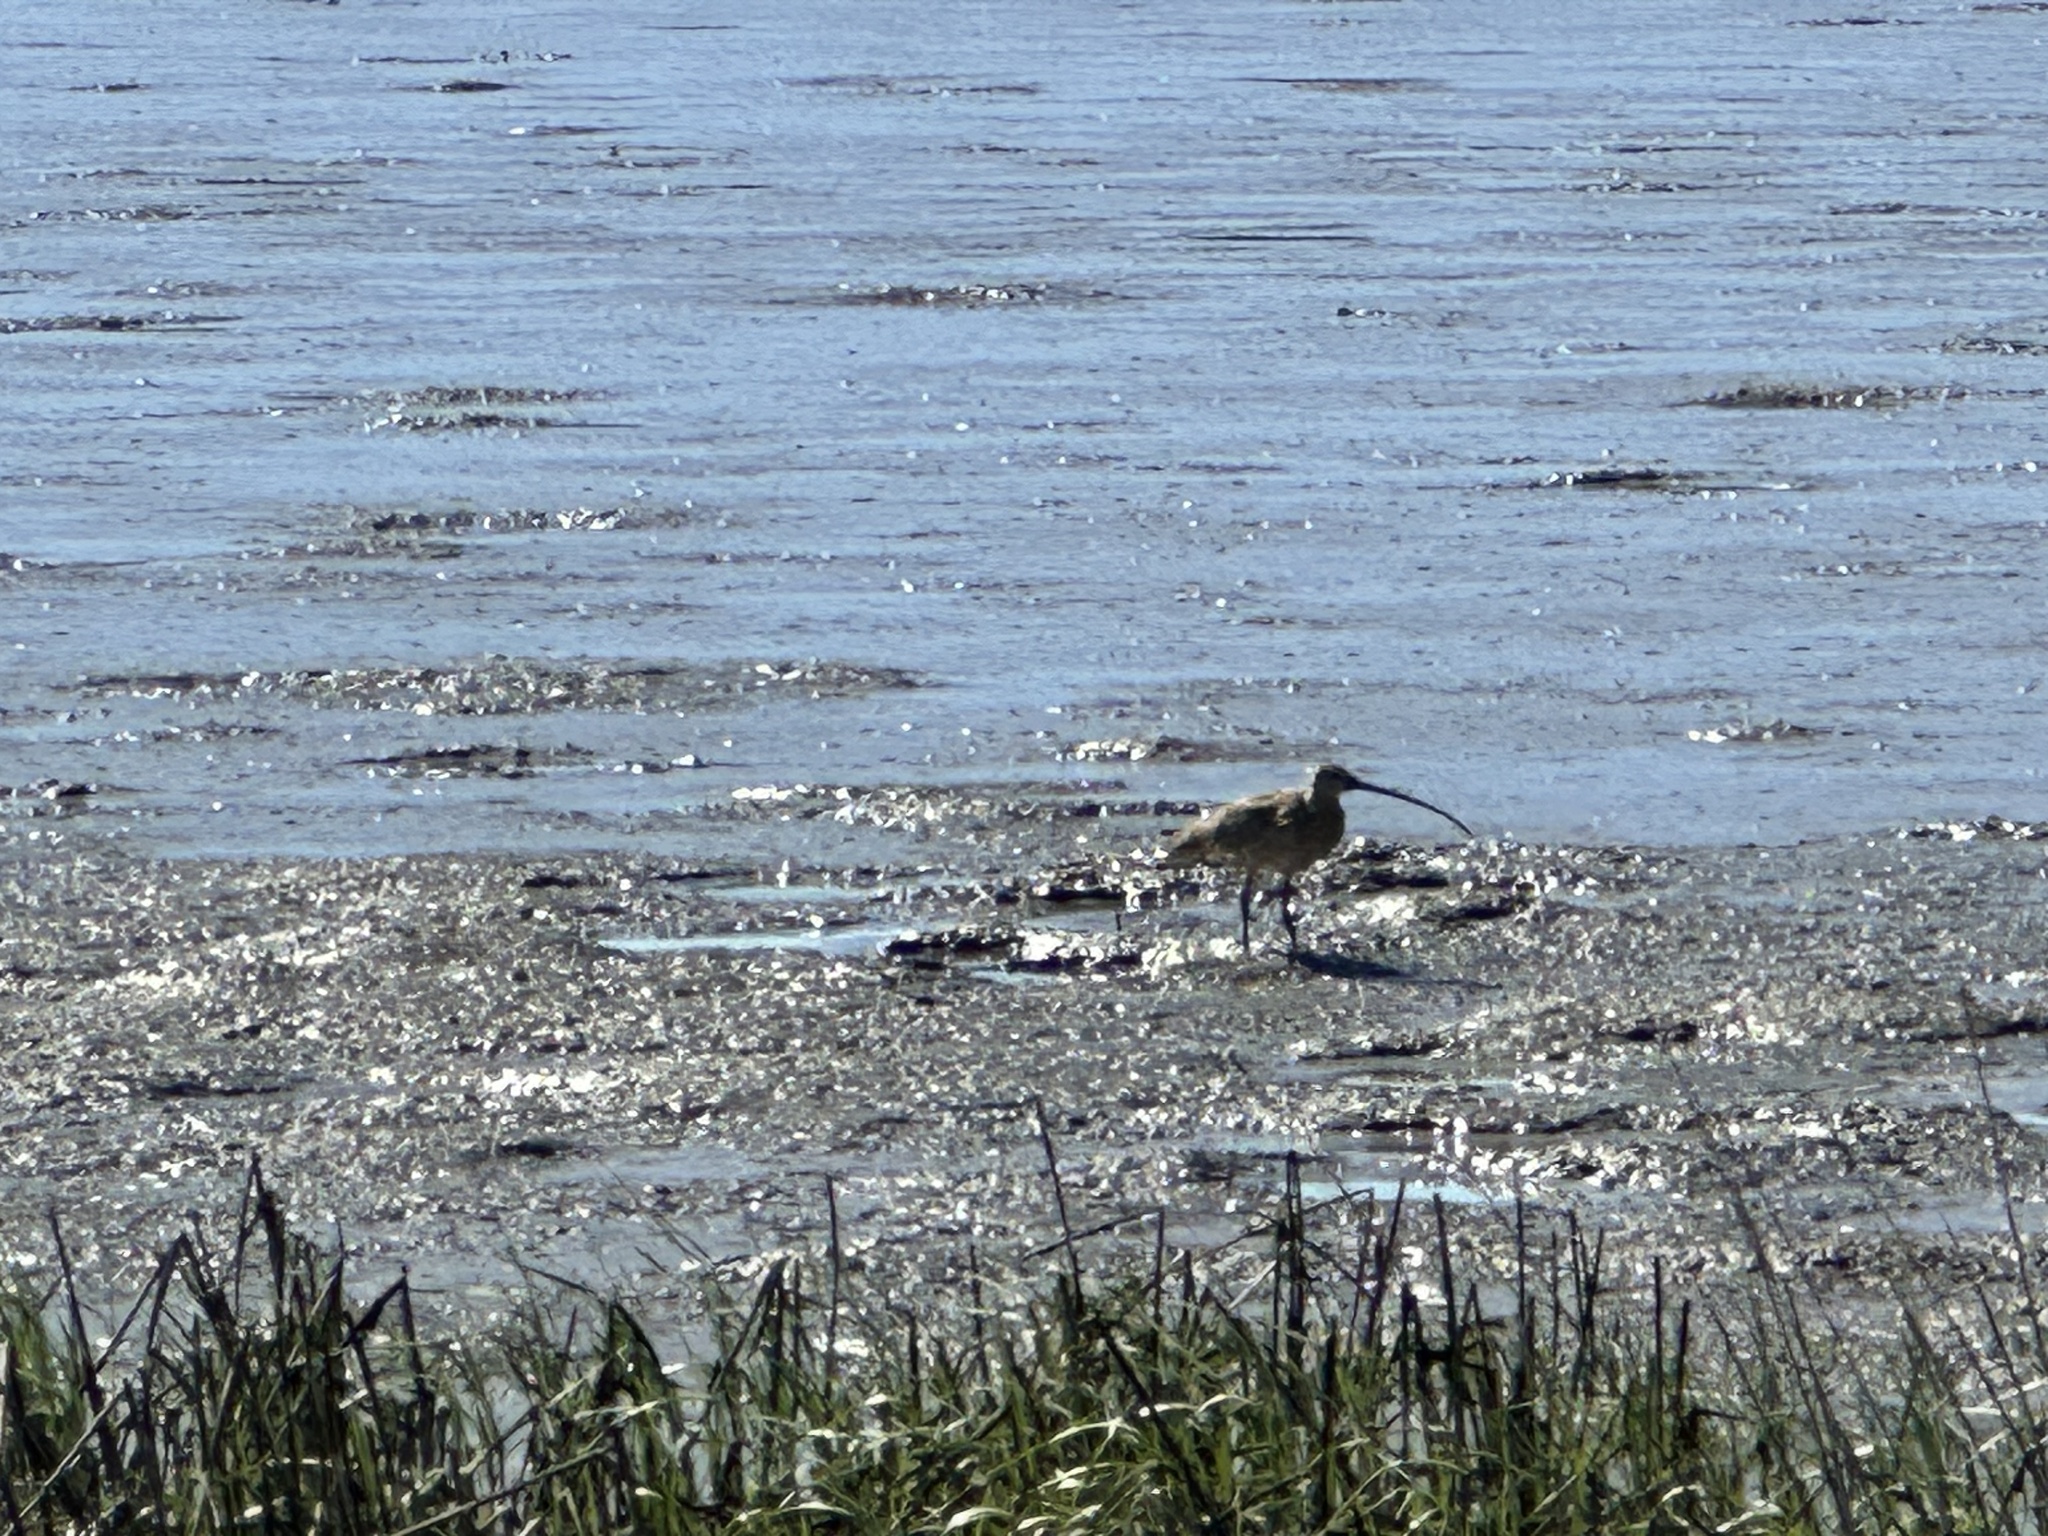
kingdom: Animalia
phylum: Chordata
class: Aves
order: Charadriiformes
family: Scolopacidae
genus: Numenius
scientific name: Numenius americanus
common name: Long-billed curlew
